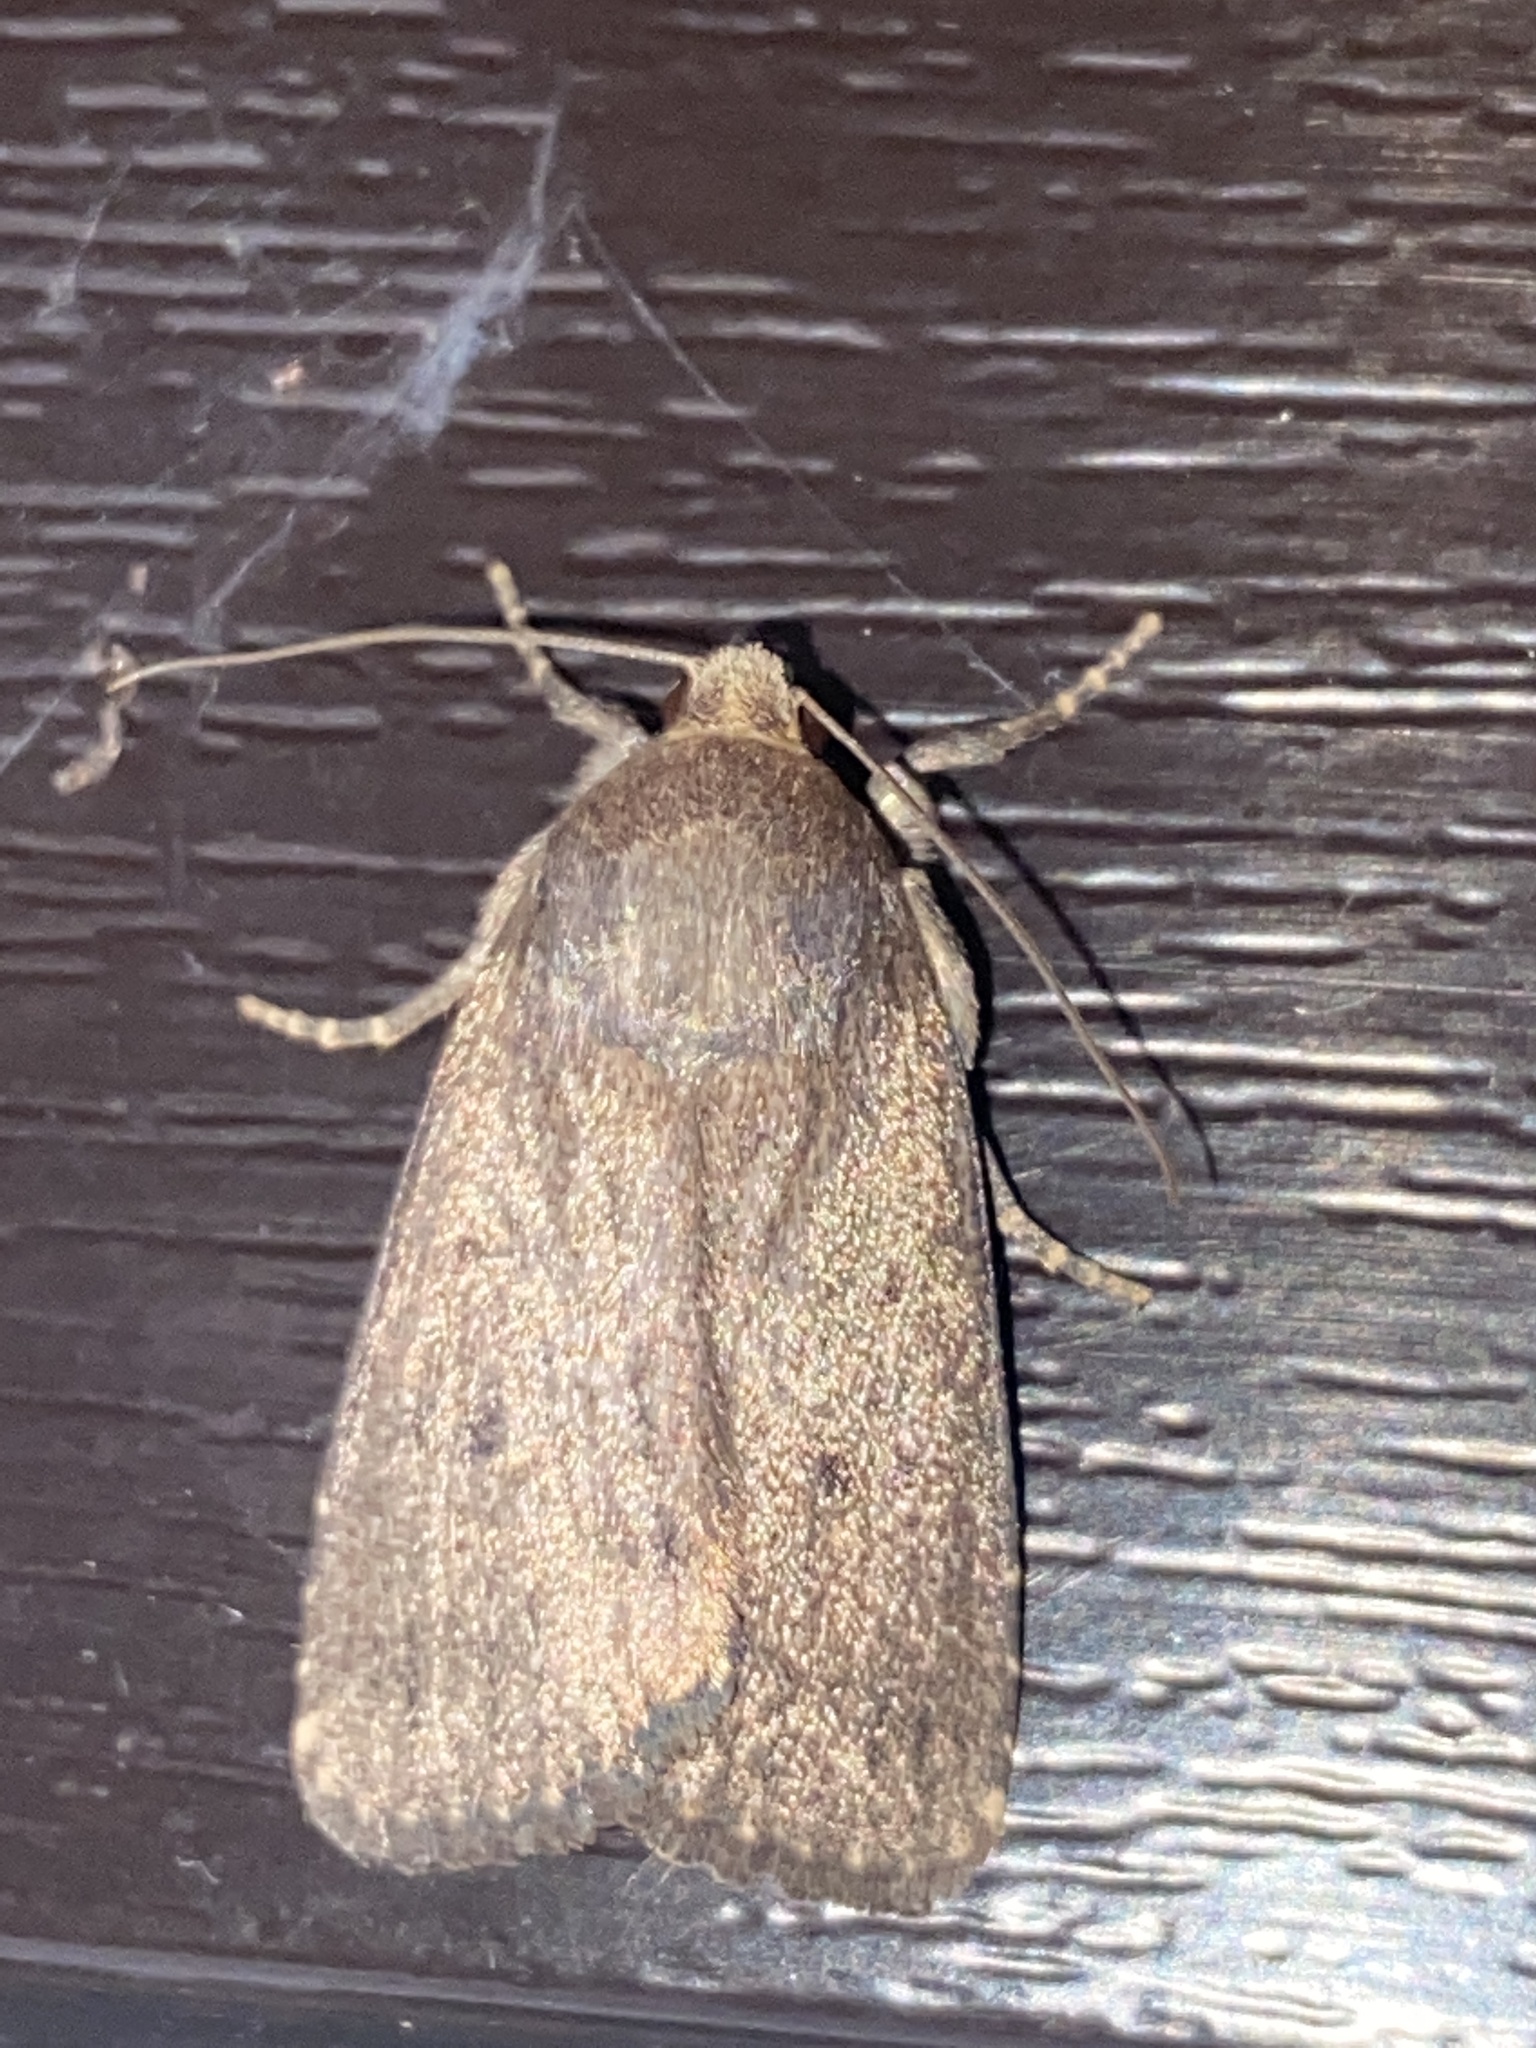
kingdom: Animalia
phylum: Arthropoda
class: Insecta
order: Lepidoptera
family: Noctuidae
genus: Amphipyra
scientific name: Amphipyra tragopoginis
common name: Mouse moth
